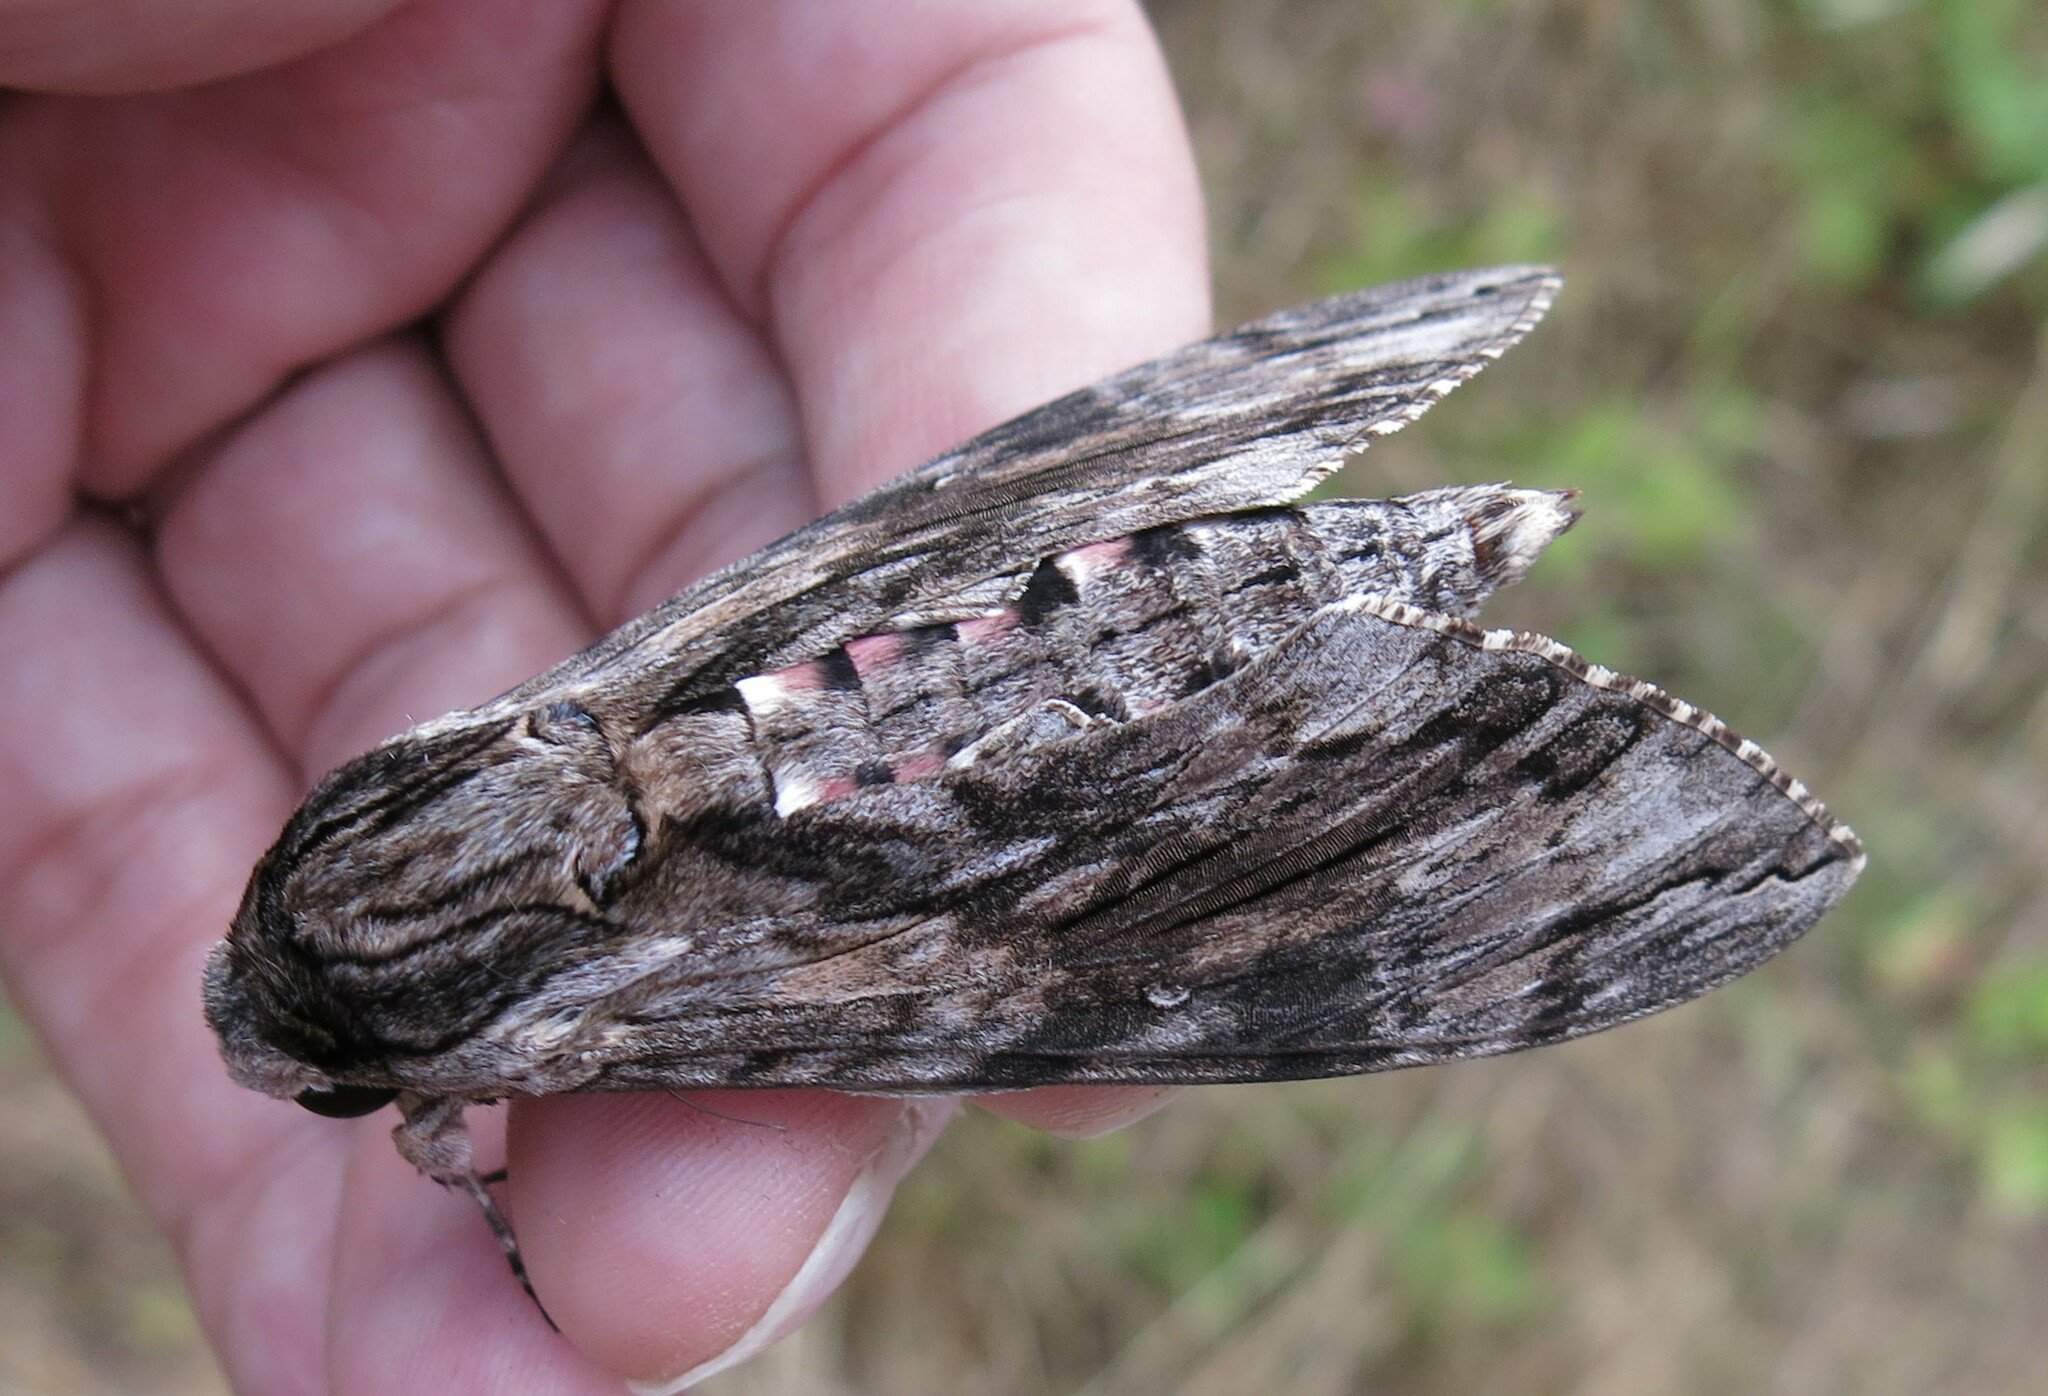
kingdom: Animalia
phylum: Arthropoda
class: Insecta
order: Lepidoptera
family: Sphingidae
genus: Agrius
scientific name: Agrius convolvuli
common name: Convolvulus hawkmoth
